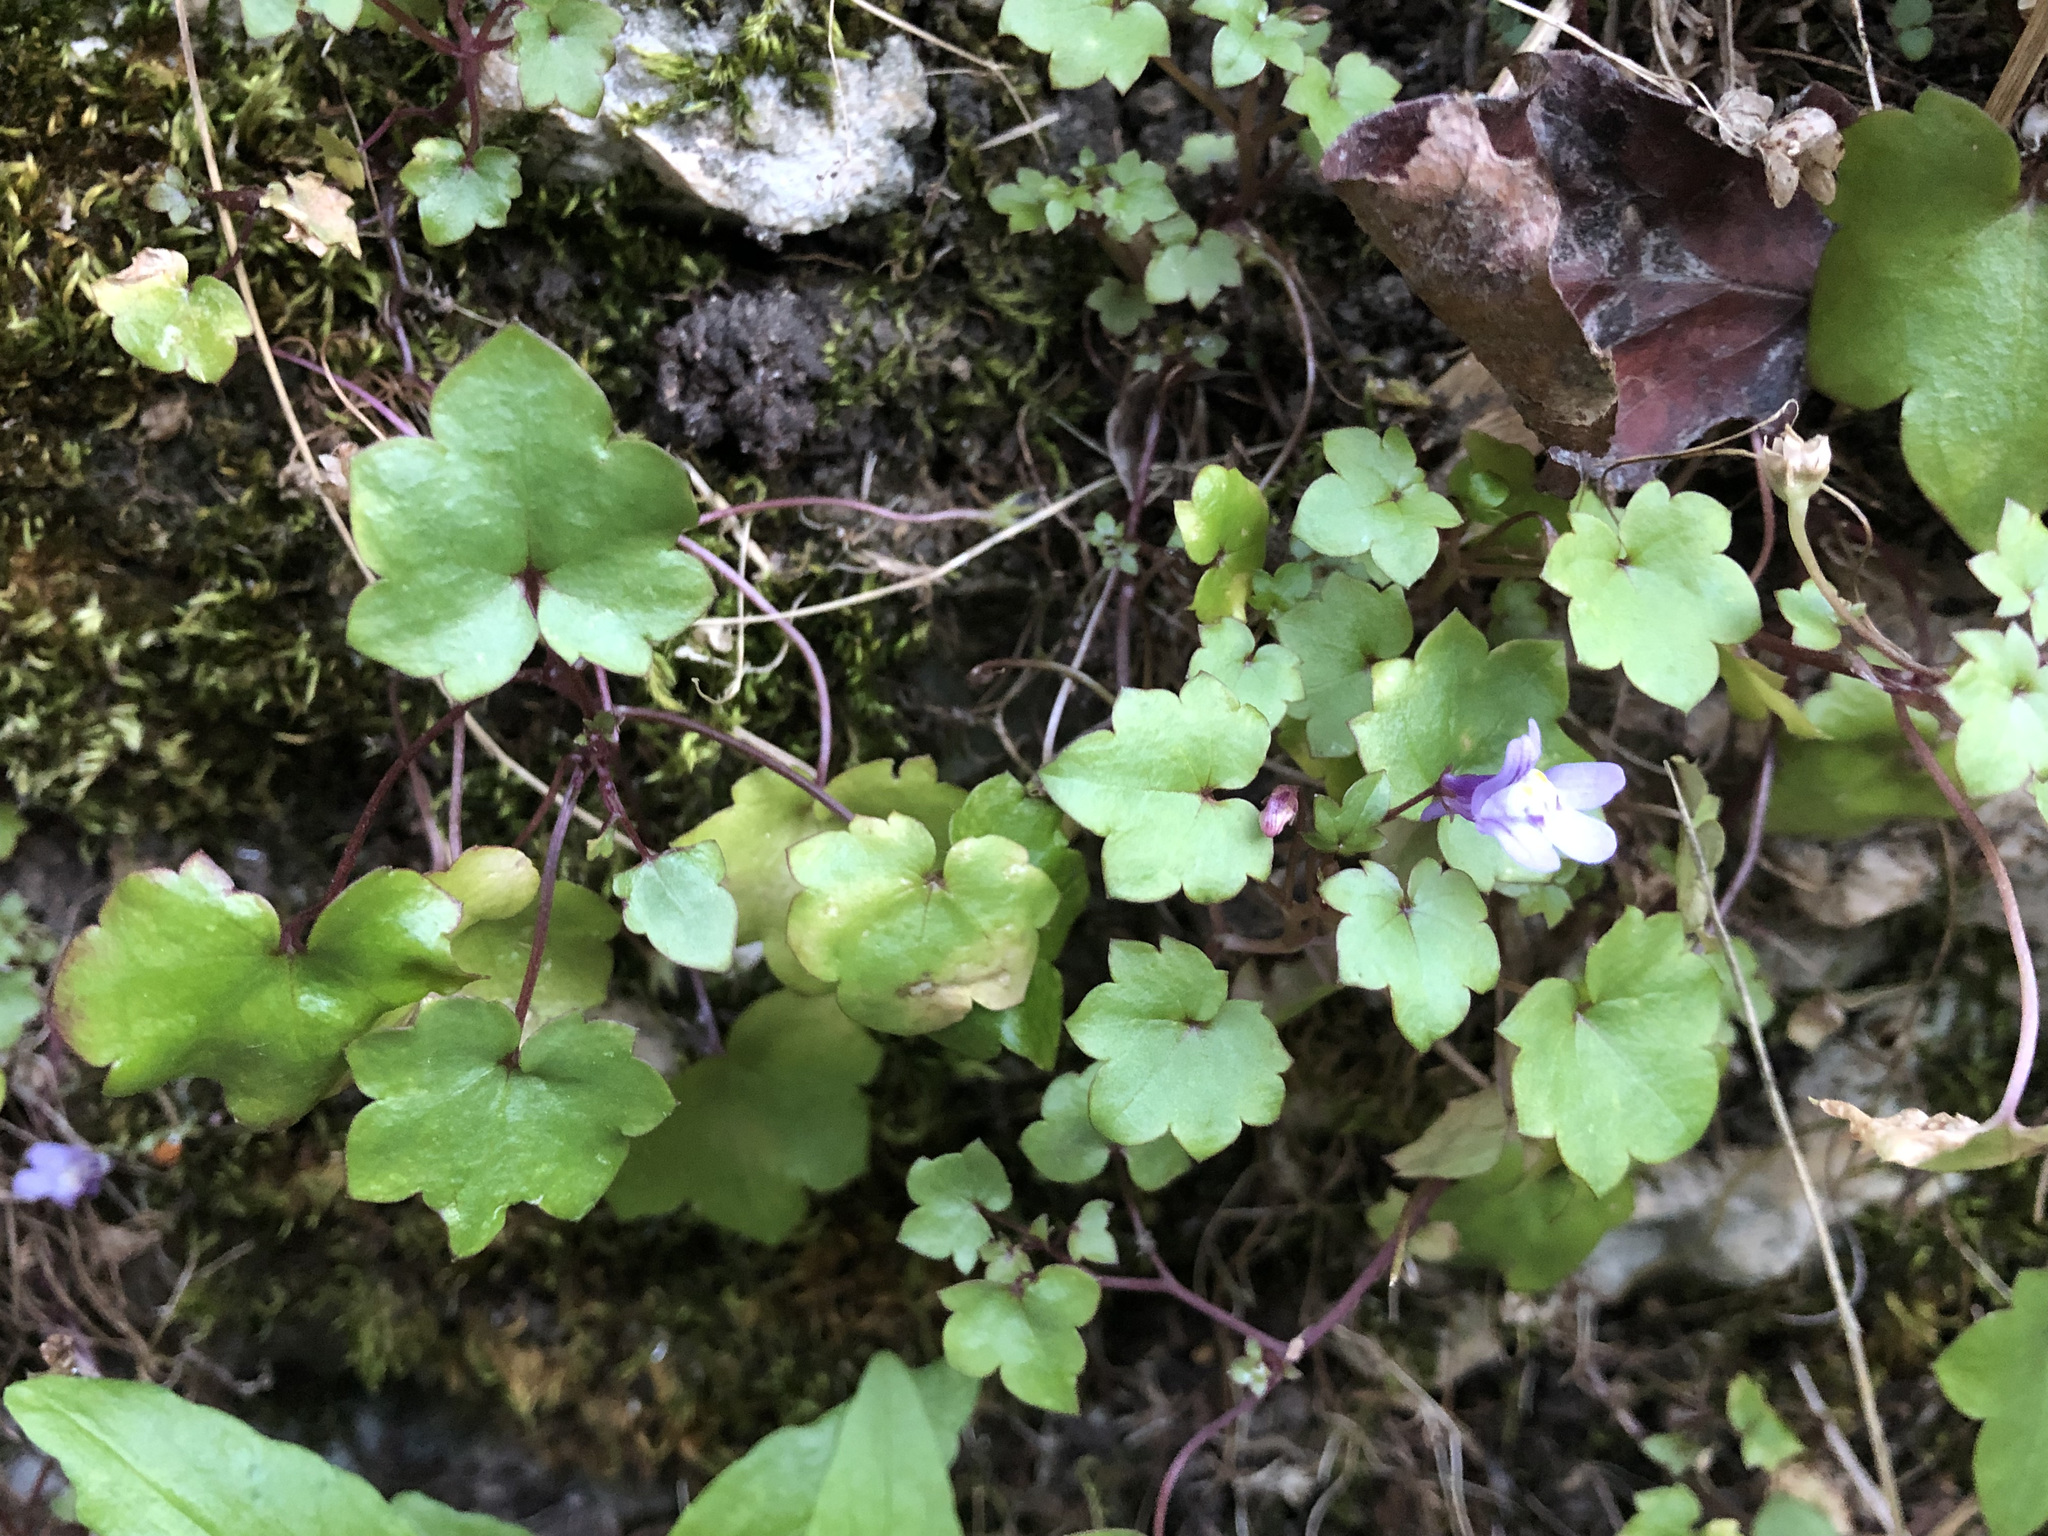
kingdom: Plantae
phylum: Tracheophyta
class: Magnoliopsida
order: Lamiales
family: Plantaginaceae
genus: Cymbalaria
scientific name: Cymbalaria muralis
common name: Ivy-leaved toadflax
